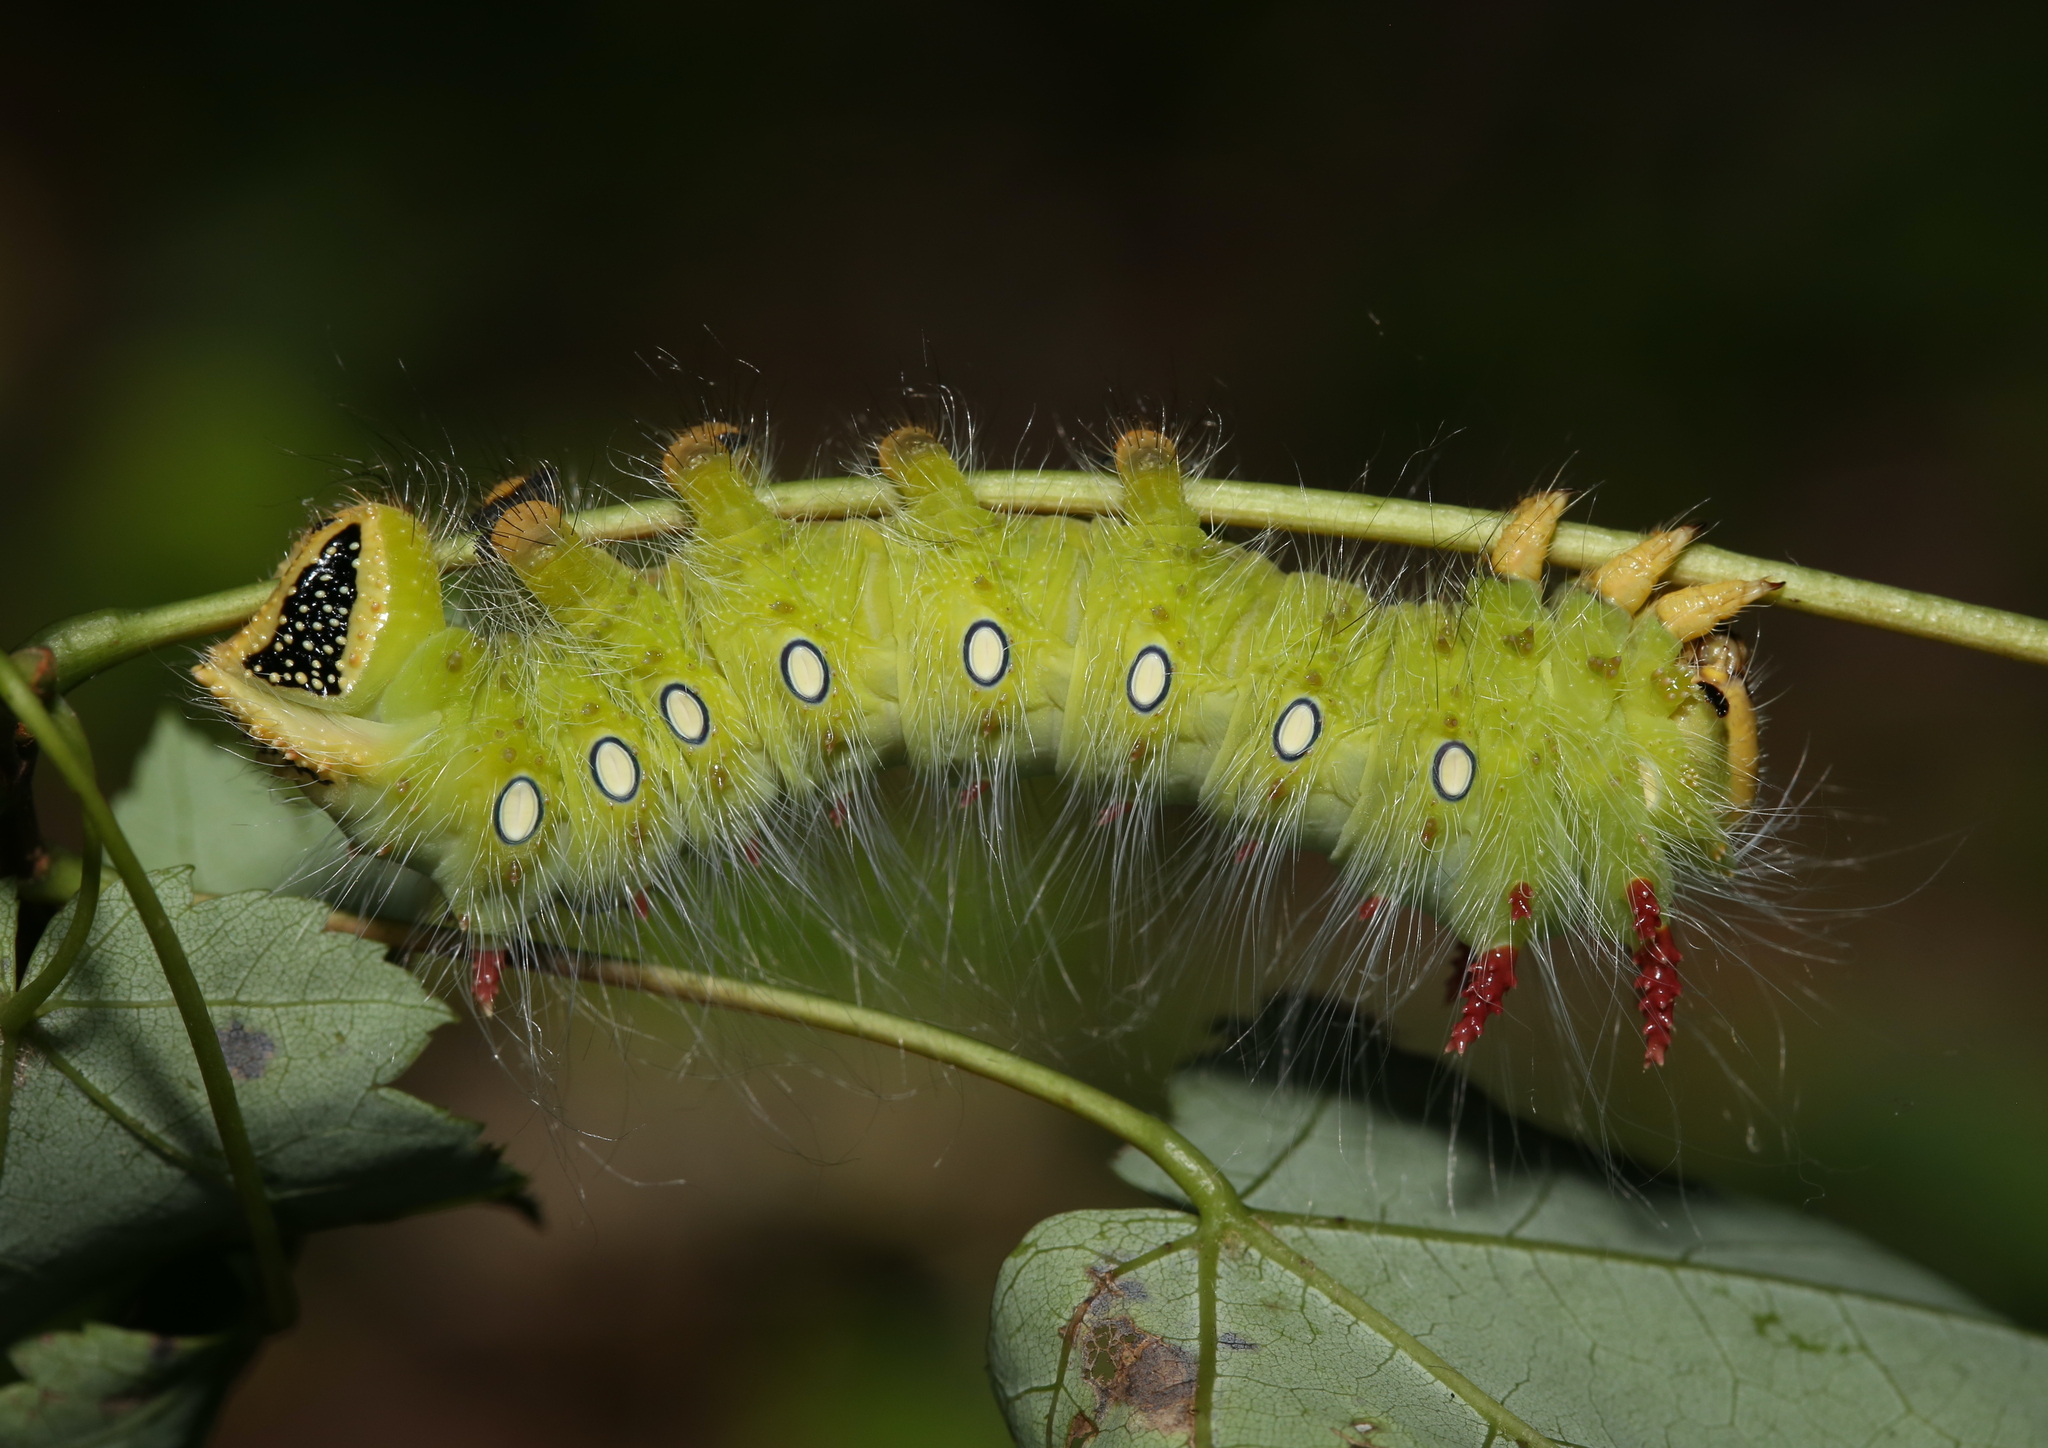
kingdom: Animalia
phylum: Arthropoda
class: Insecta
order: Lepidoptera
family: Saturniidae
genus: Eacles
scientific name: Eacles imperialis
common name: Imperial moth
